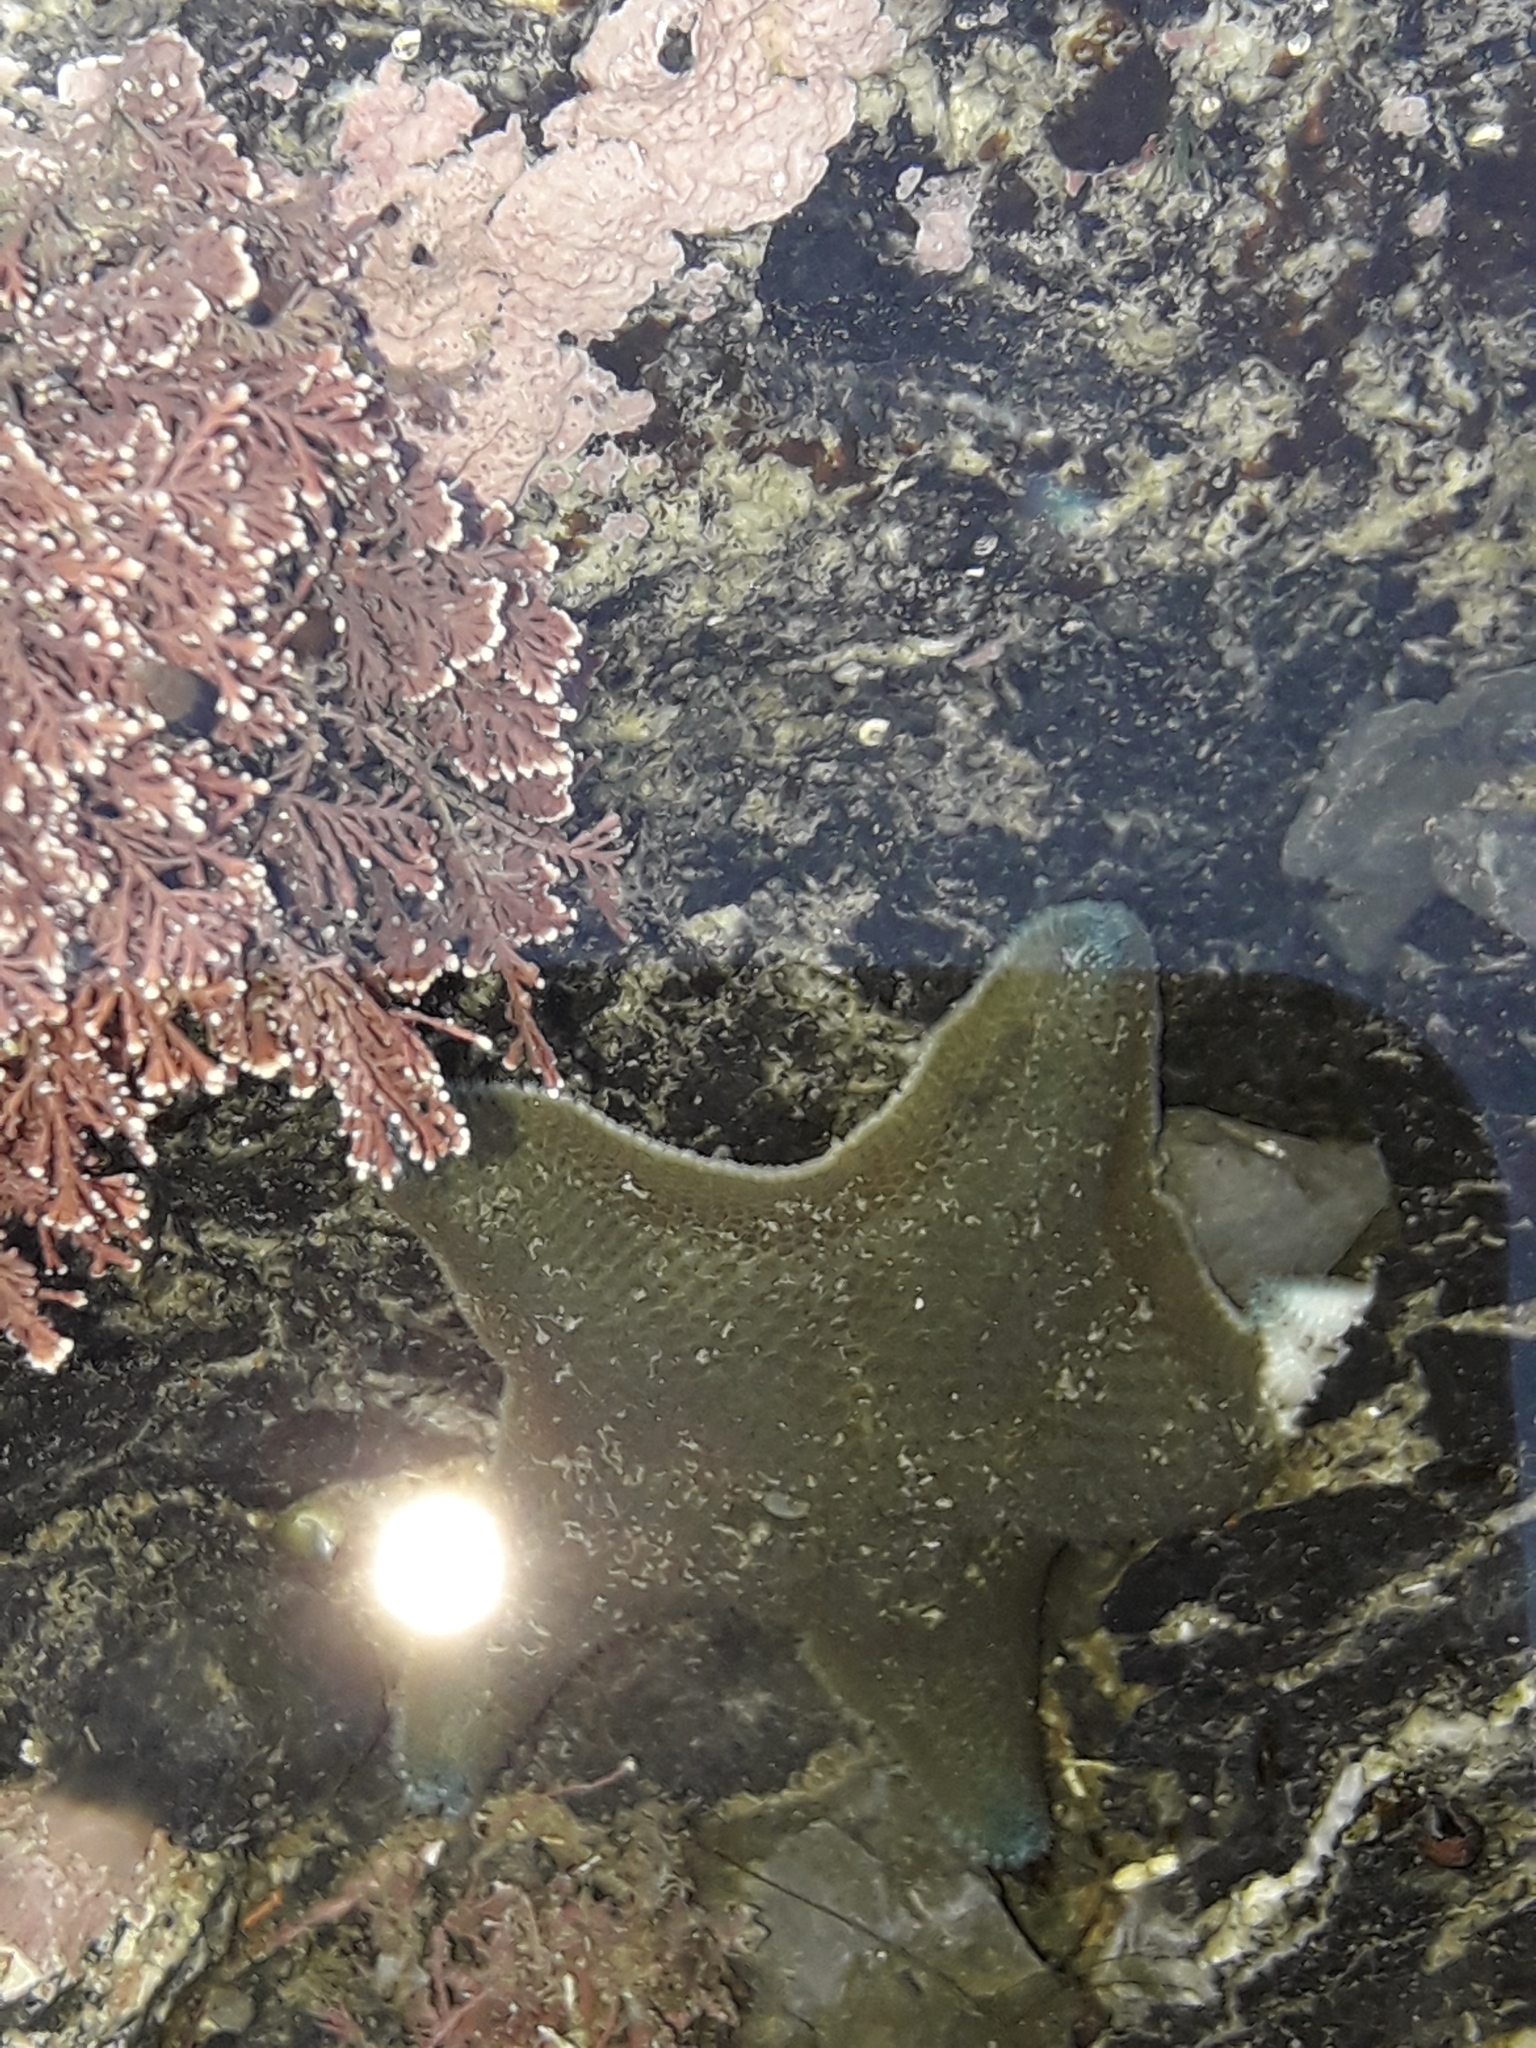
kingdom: Animalia
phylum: Echinodermata
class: Asteroidea
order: Valvatida
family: Asterinidae
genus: Patiriella
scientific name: Patiriella regularis
